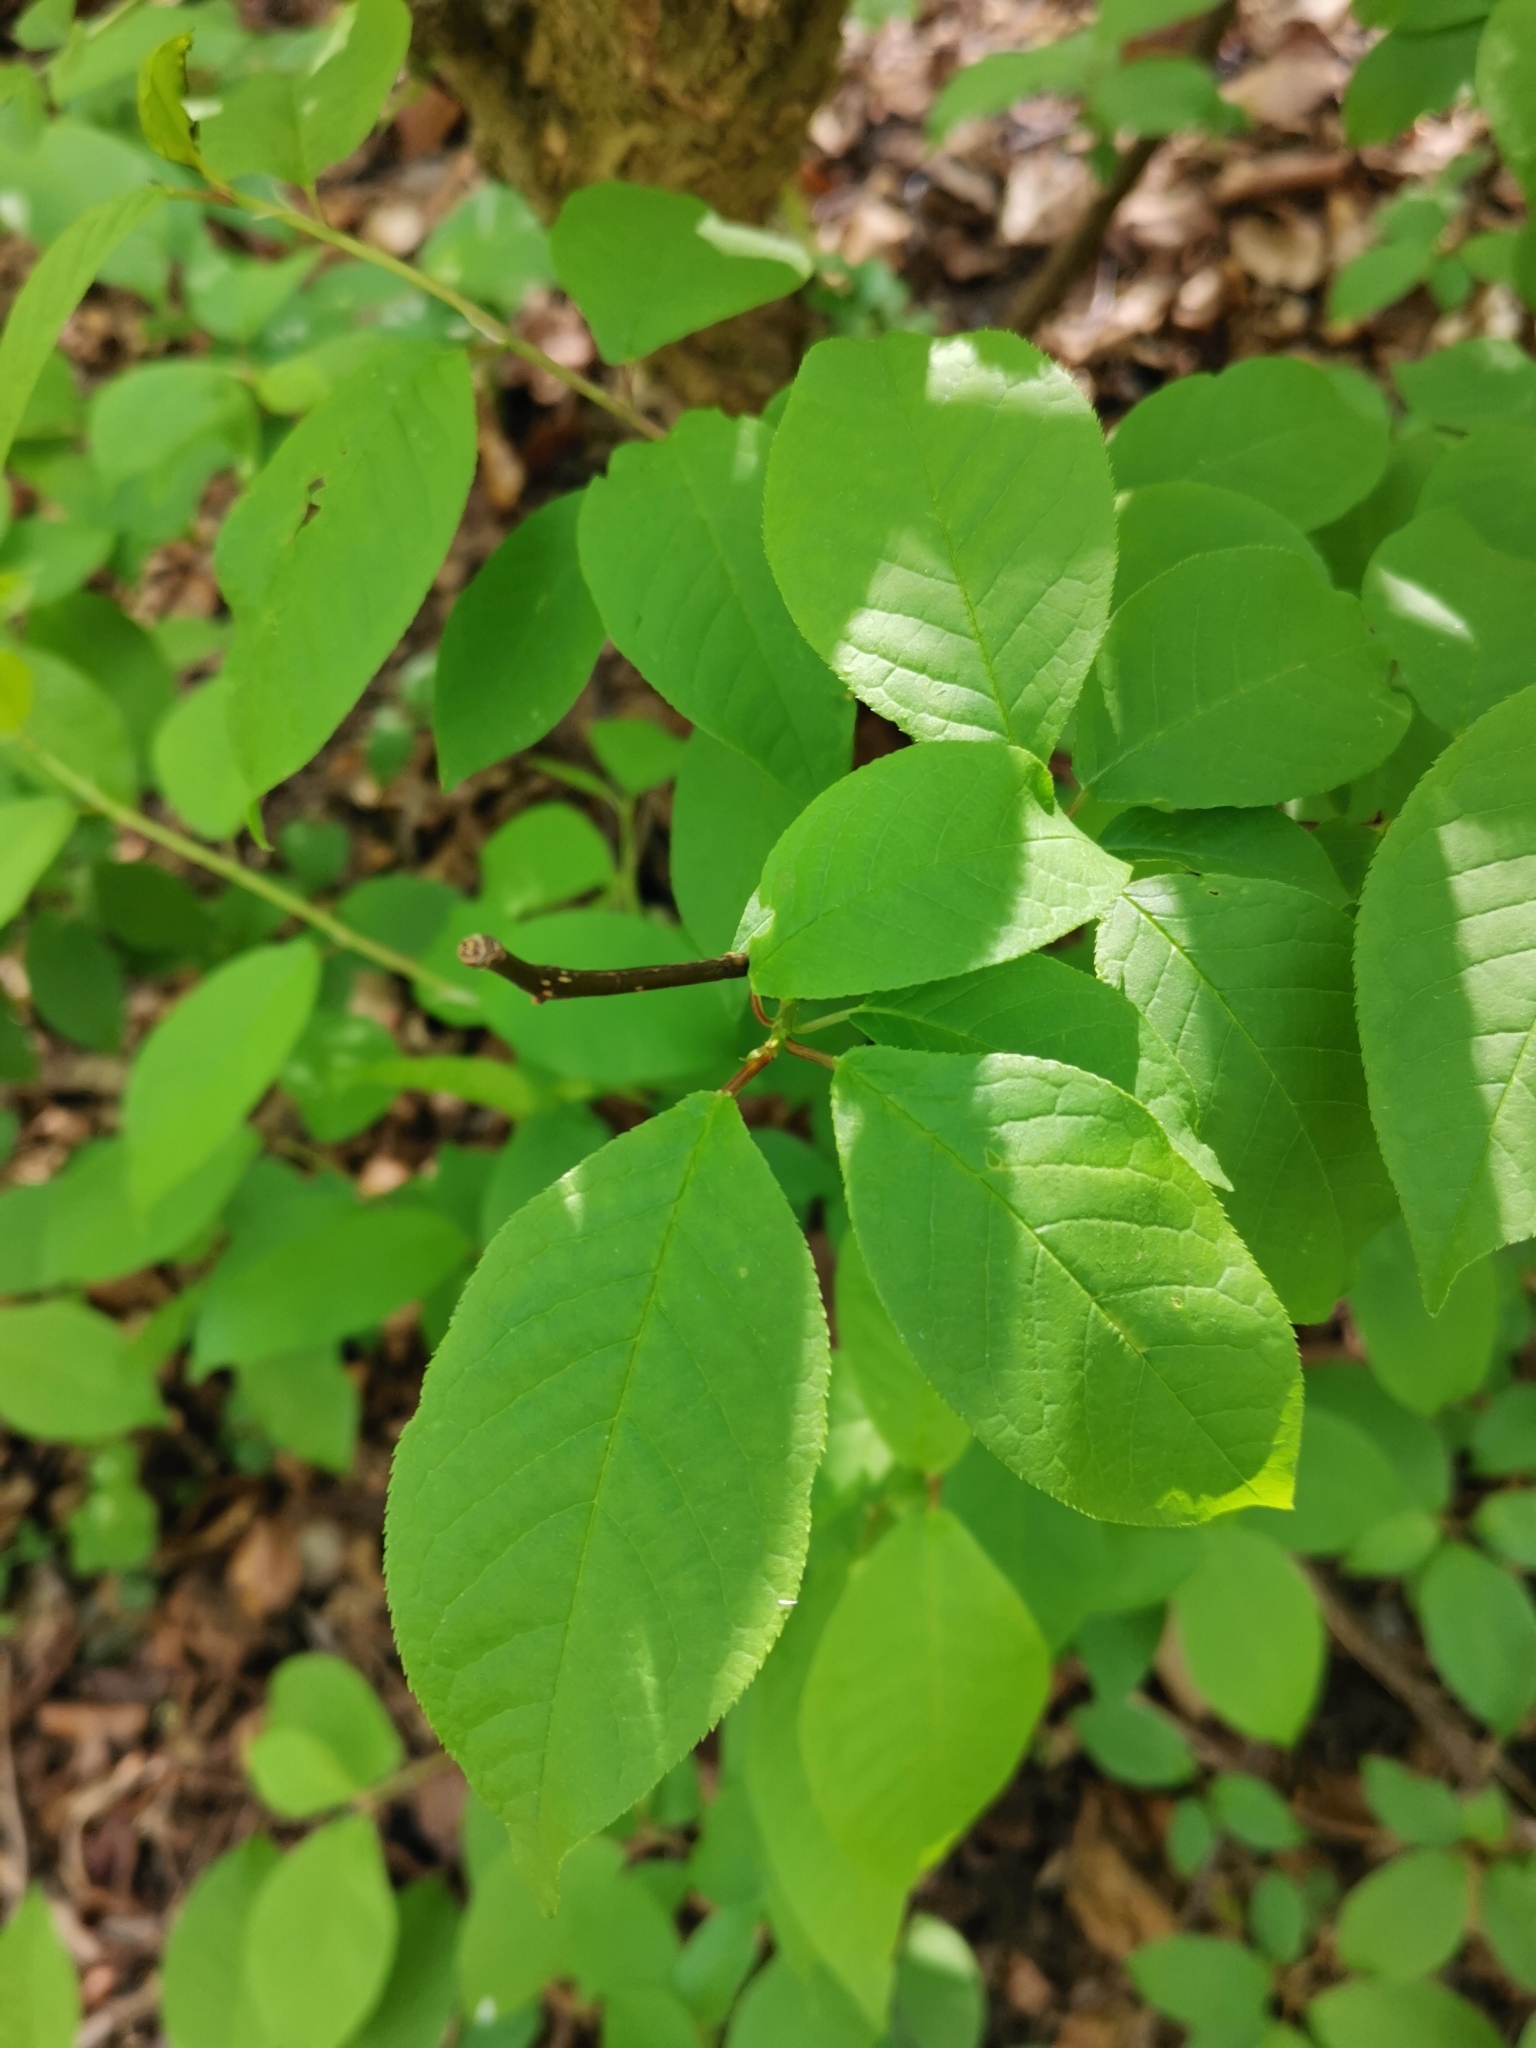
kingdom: Plantae
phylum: Tracheophyta
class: Magnoliopsida
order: Rosales
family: Rosaceae
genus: Prunus
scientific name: Prunus padus
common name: Bird cherry
